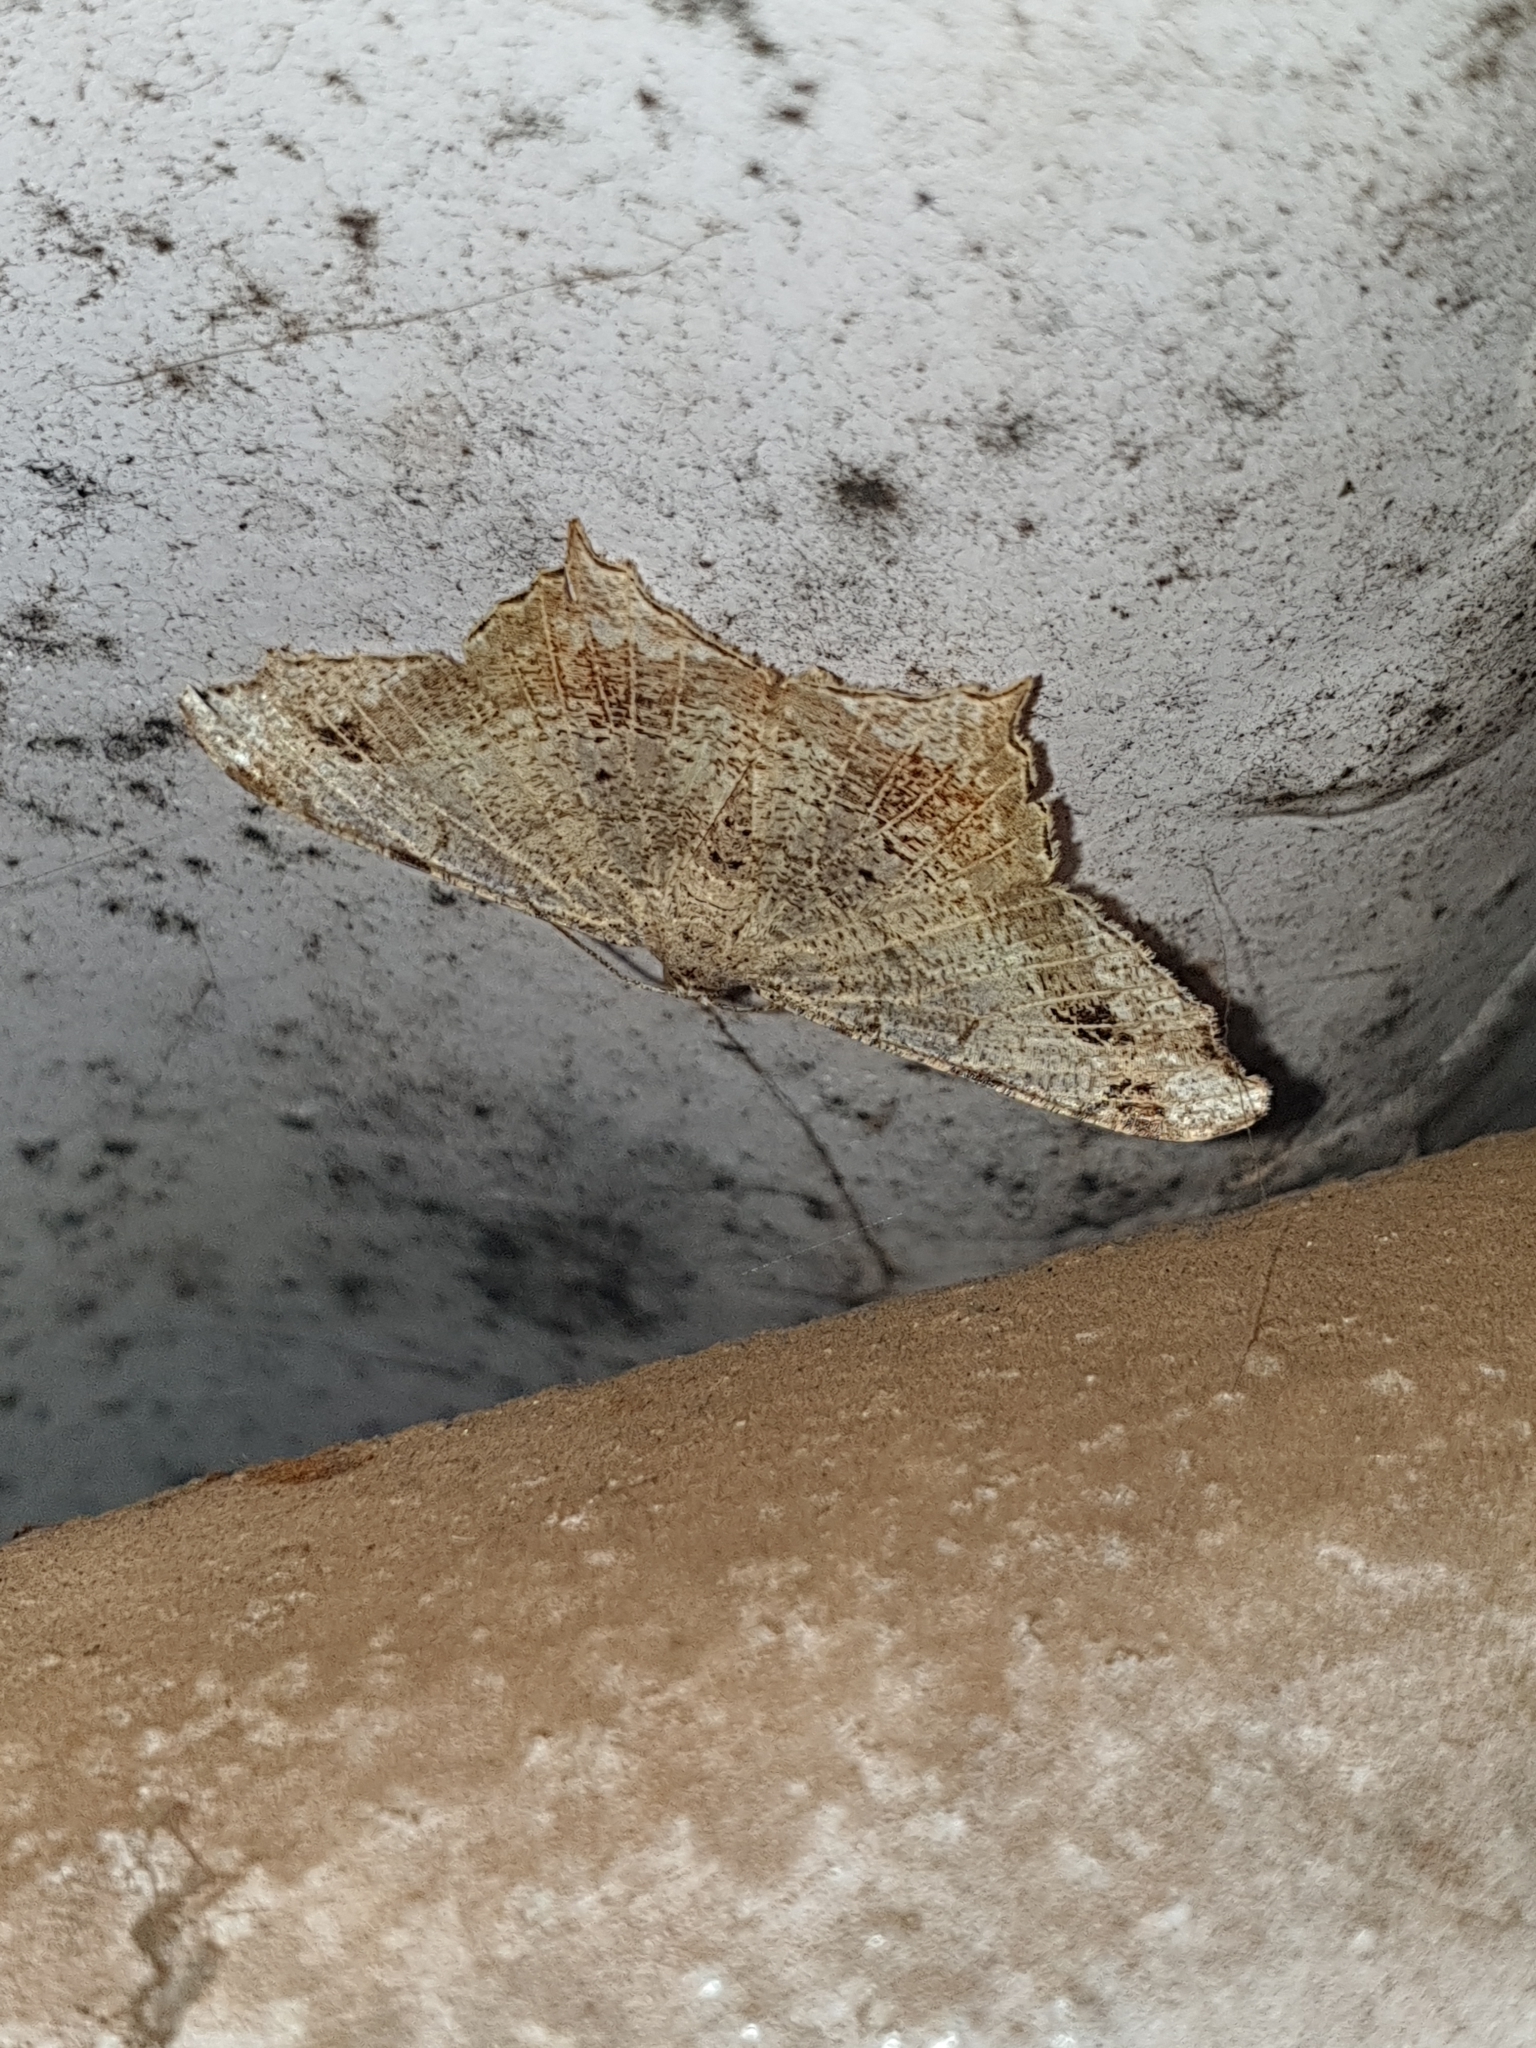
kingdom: Animalia
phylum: Arthropoda
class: Insecta
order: Lepidoptera
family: Geometridae
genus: Chiasmia
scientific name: Chiasmia emersaria
